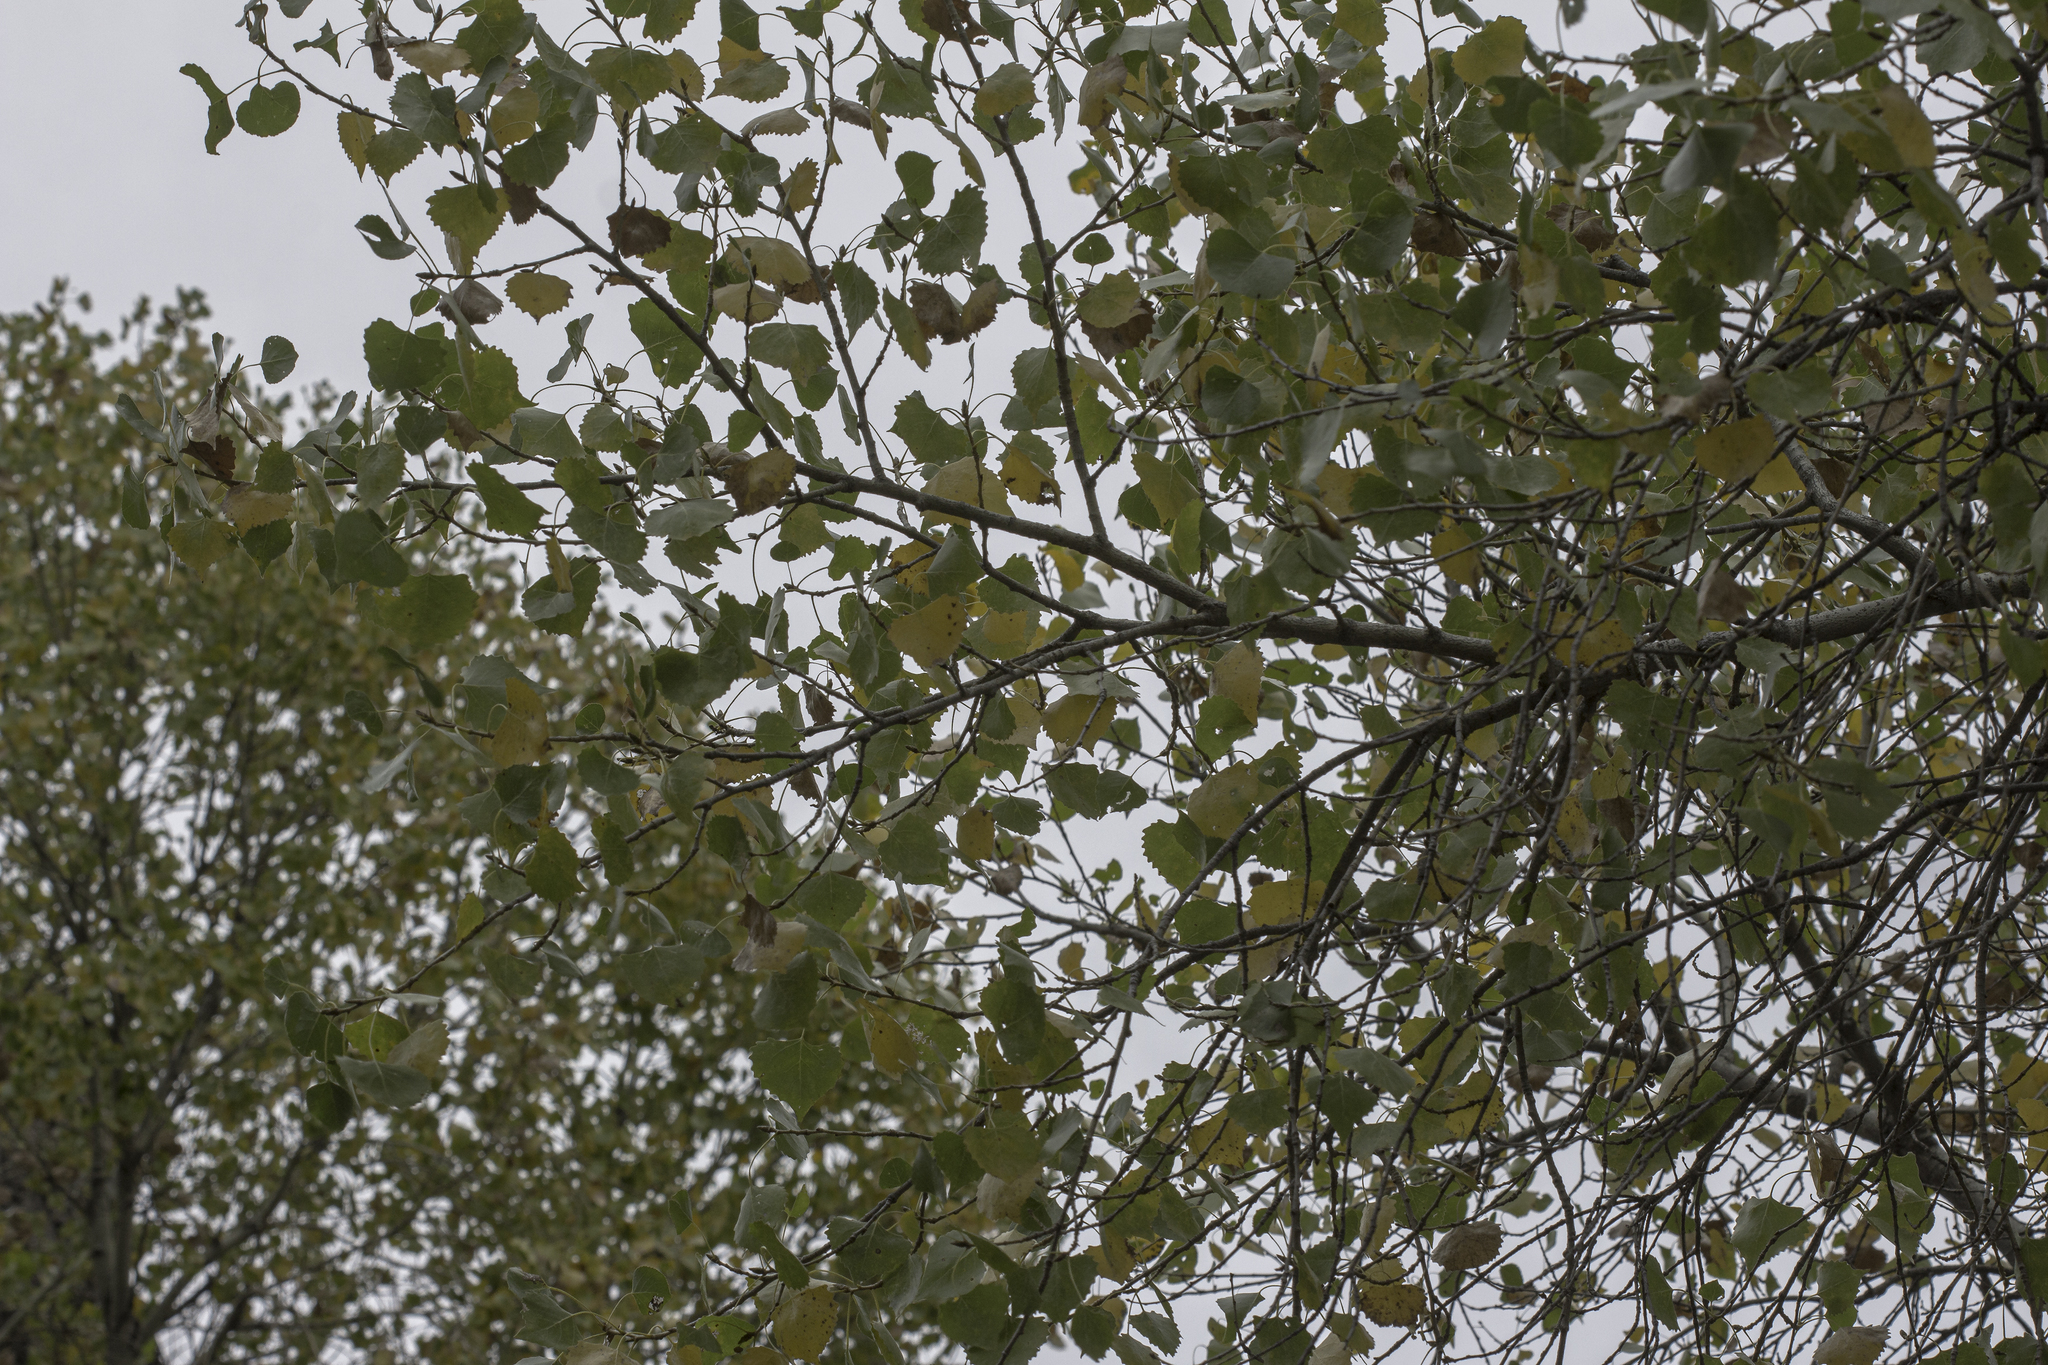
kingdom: Plantae
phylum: Tracheophyta
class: Magnoliopsida
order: Malpighiales
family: Salicaceae
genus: Populus
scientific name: Populus fremontii
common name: Fremont's cottonwood
